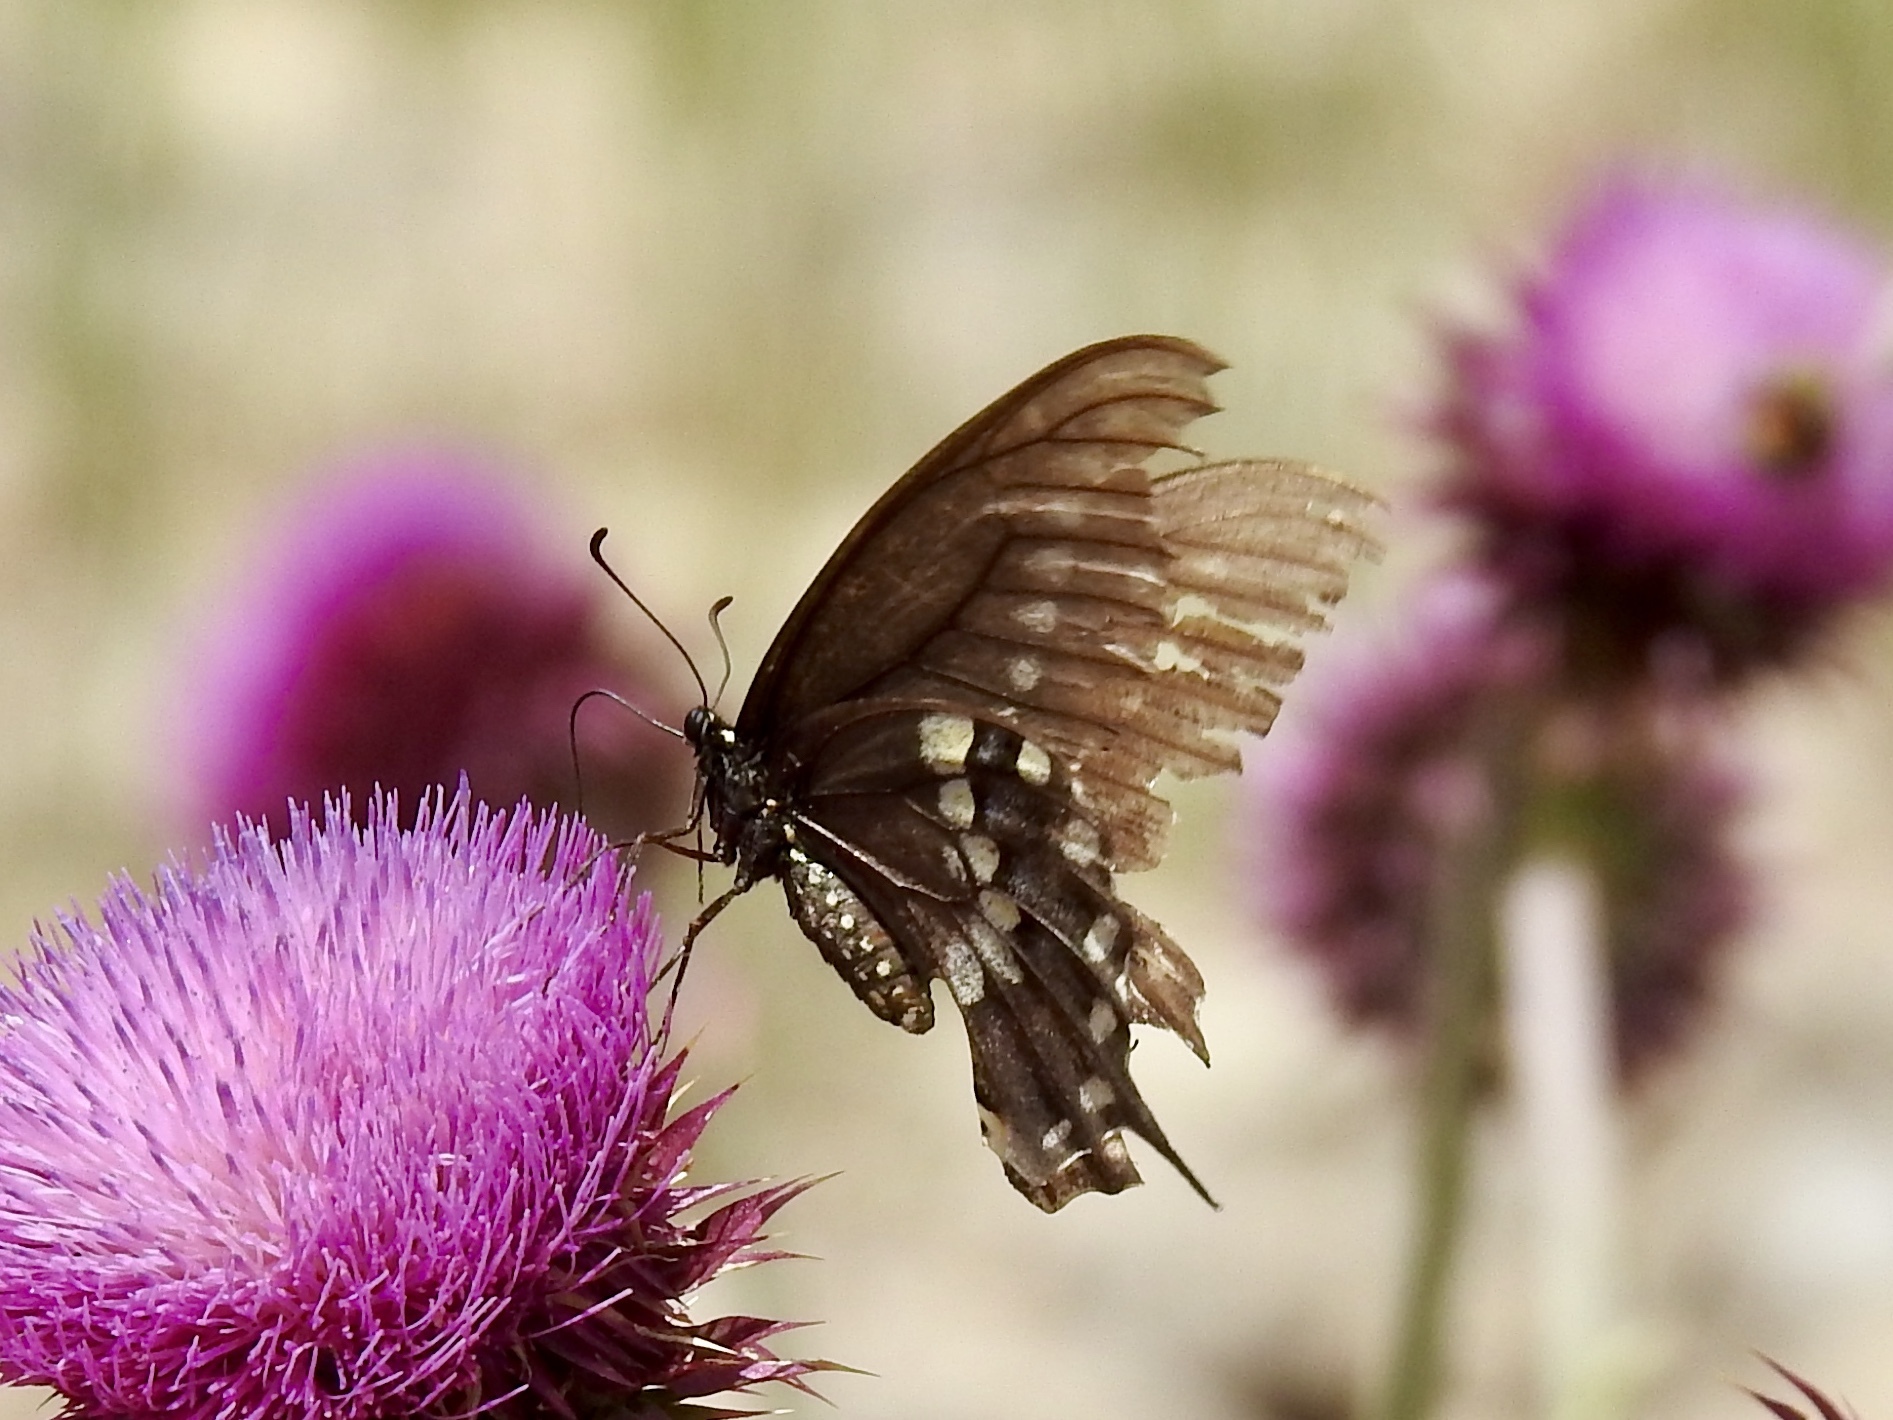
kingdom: Animalia
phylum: Arthropoda
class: Insecta
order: Lepidoptera
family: Papilionidae
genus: Papilio
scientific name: Papilio polyxenes
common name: Black swallowtail
